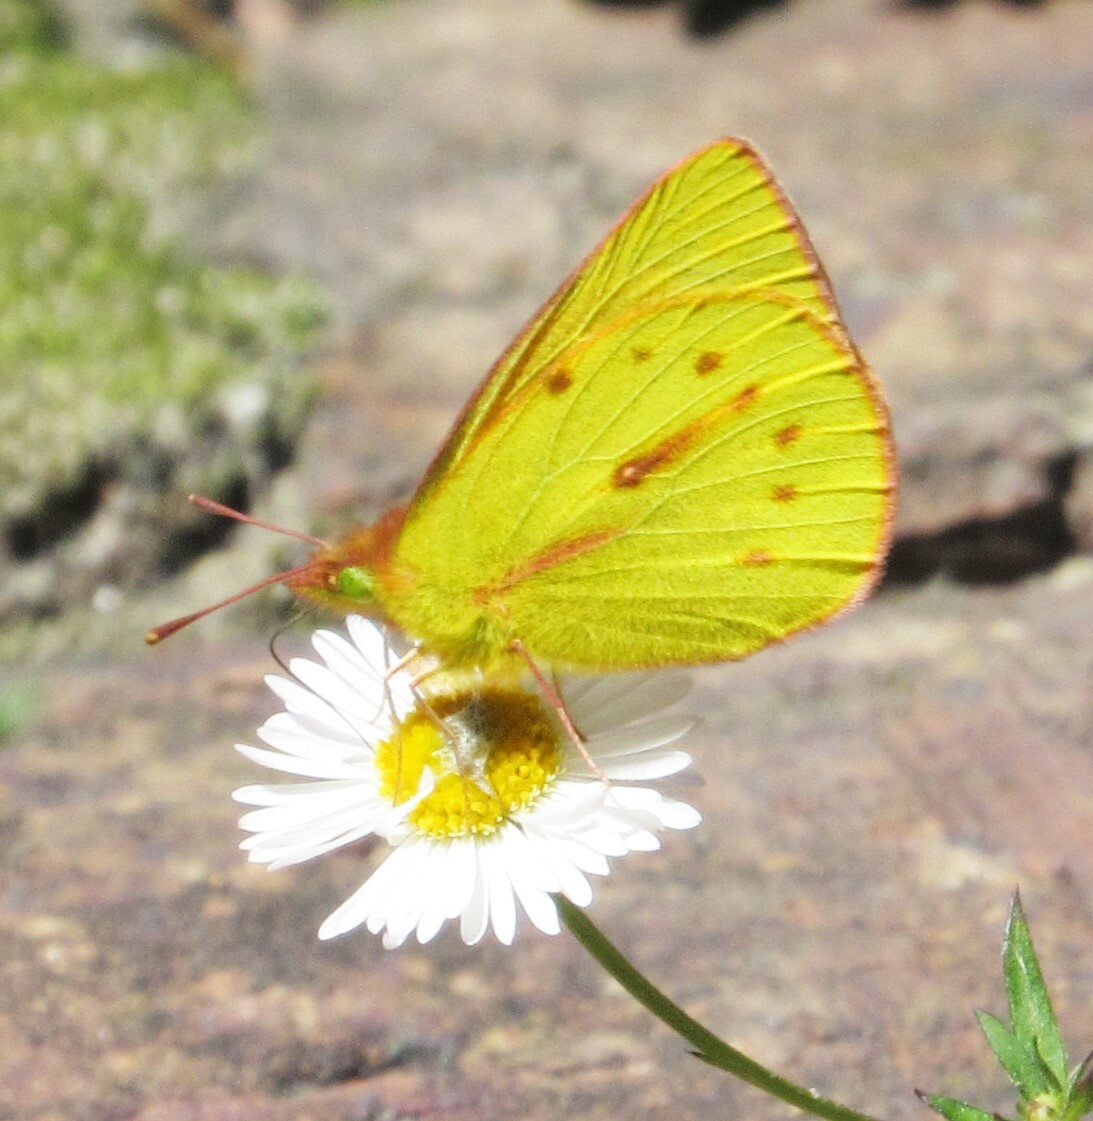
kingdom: Animalia
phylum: Arthropoda
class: Insecta
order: Lepidoptera
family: Pieridae
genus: Colias
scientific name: Colias dimera
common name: Dimera sulphur
